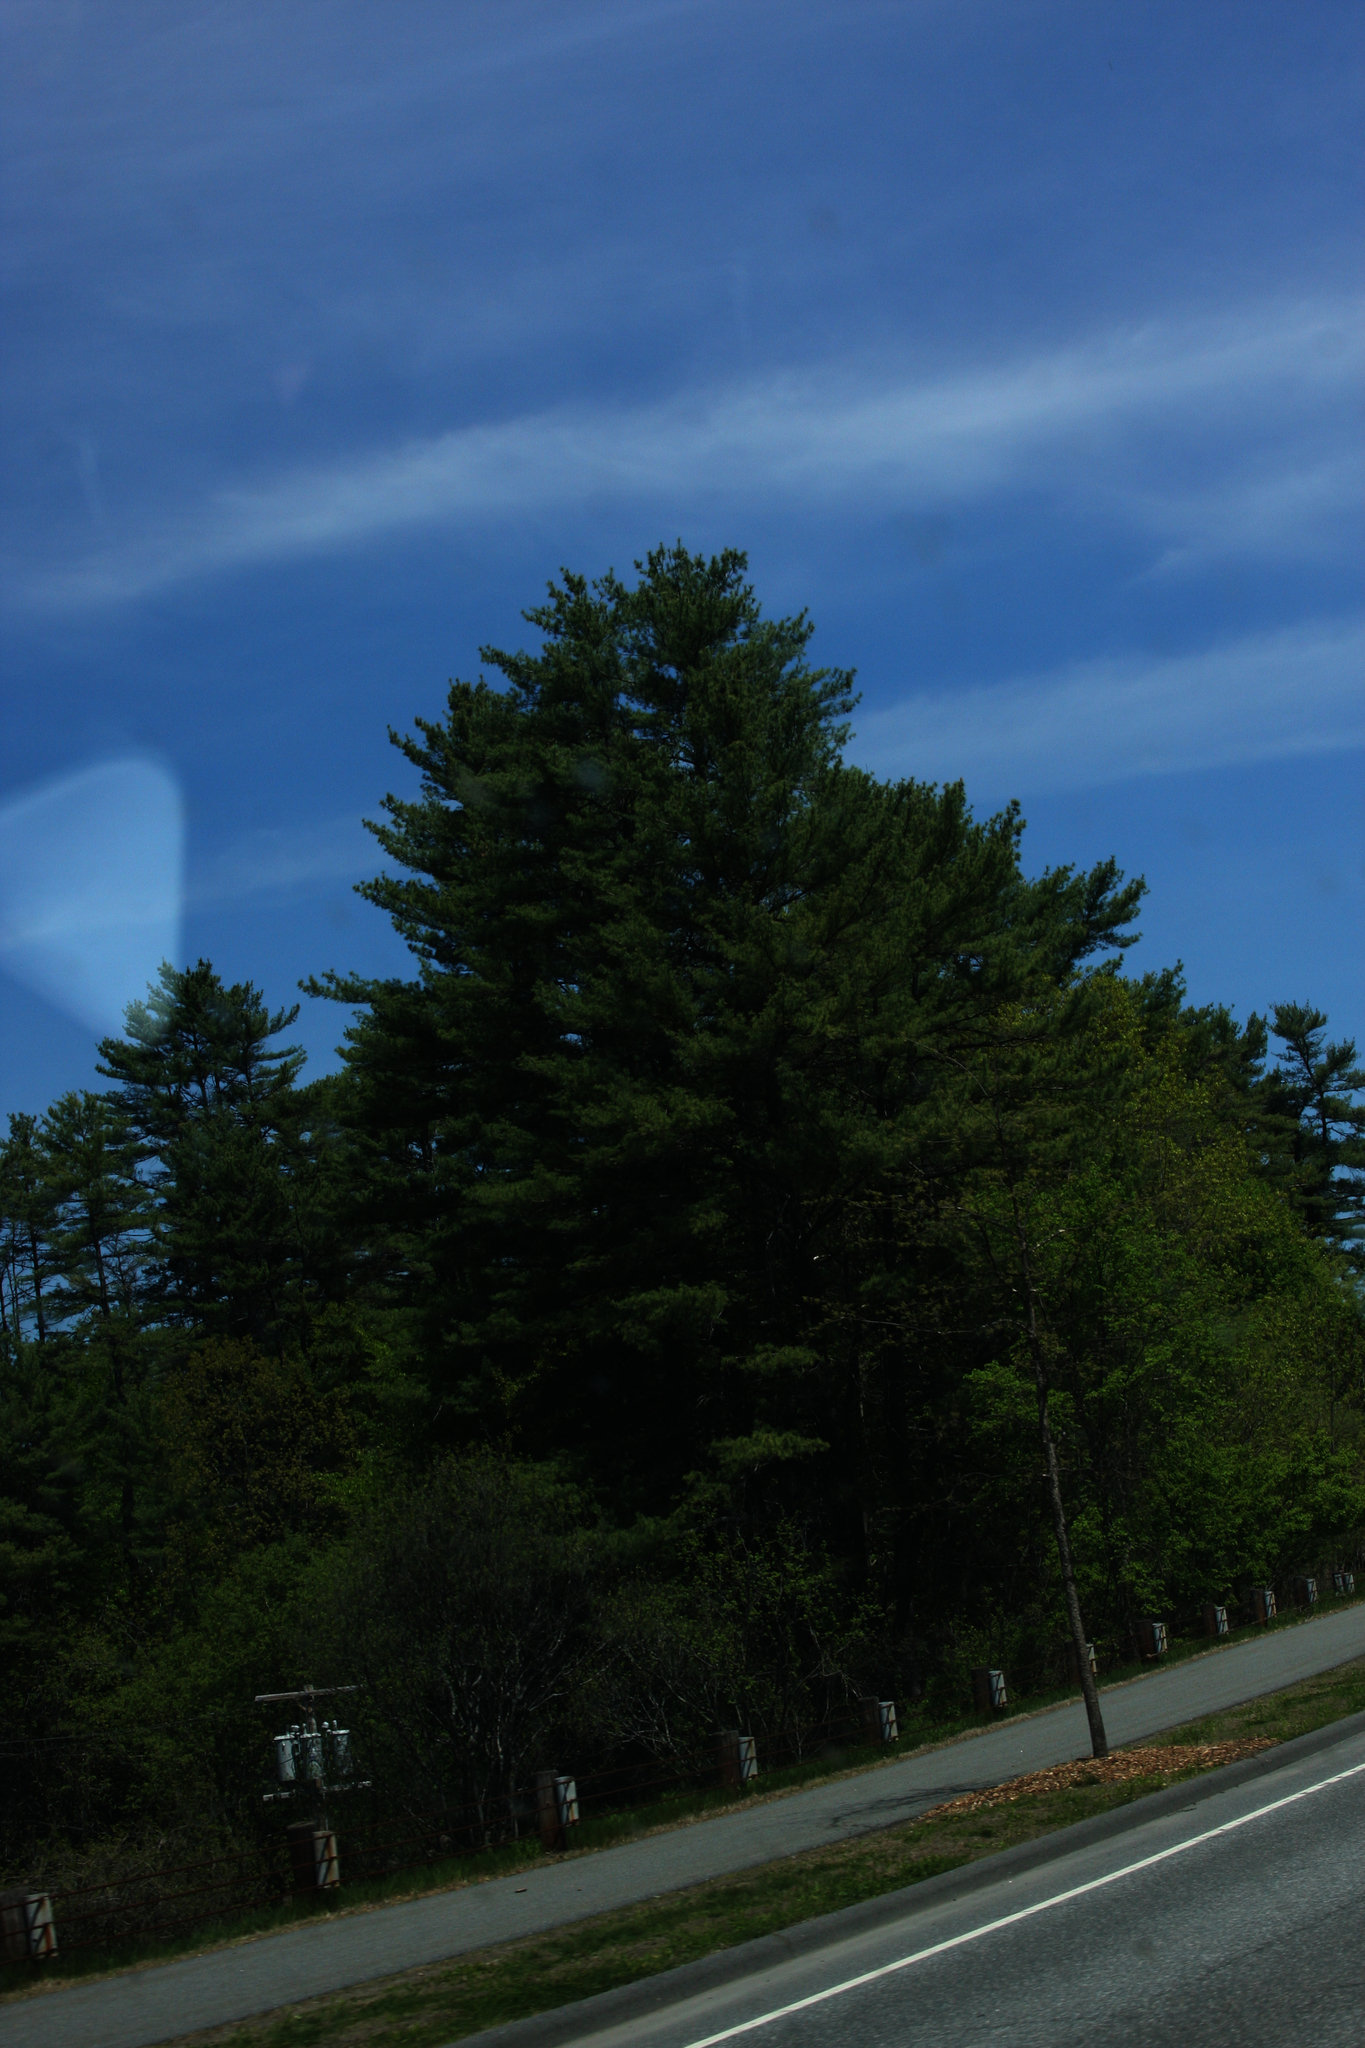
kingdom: Plantae
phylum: Tracheophyta
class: Pinopsida
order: Pinales
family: Pinaceae
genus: Pinus
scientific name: Pinus strobus
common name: Weymouth pine
